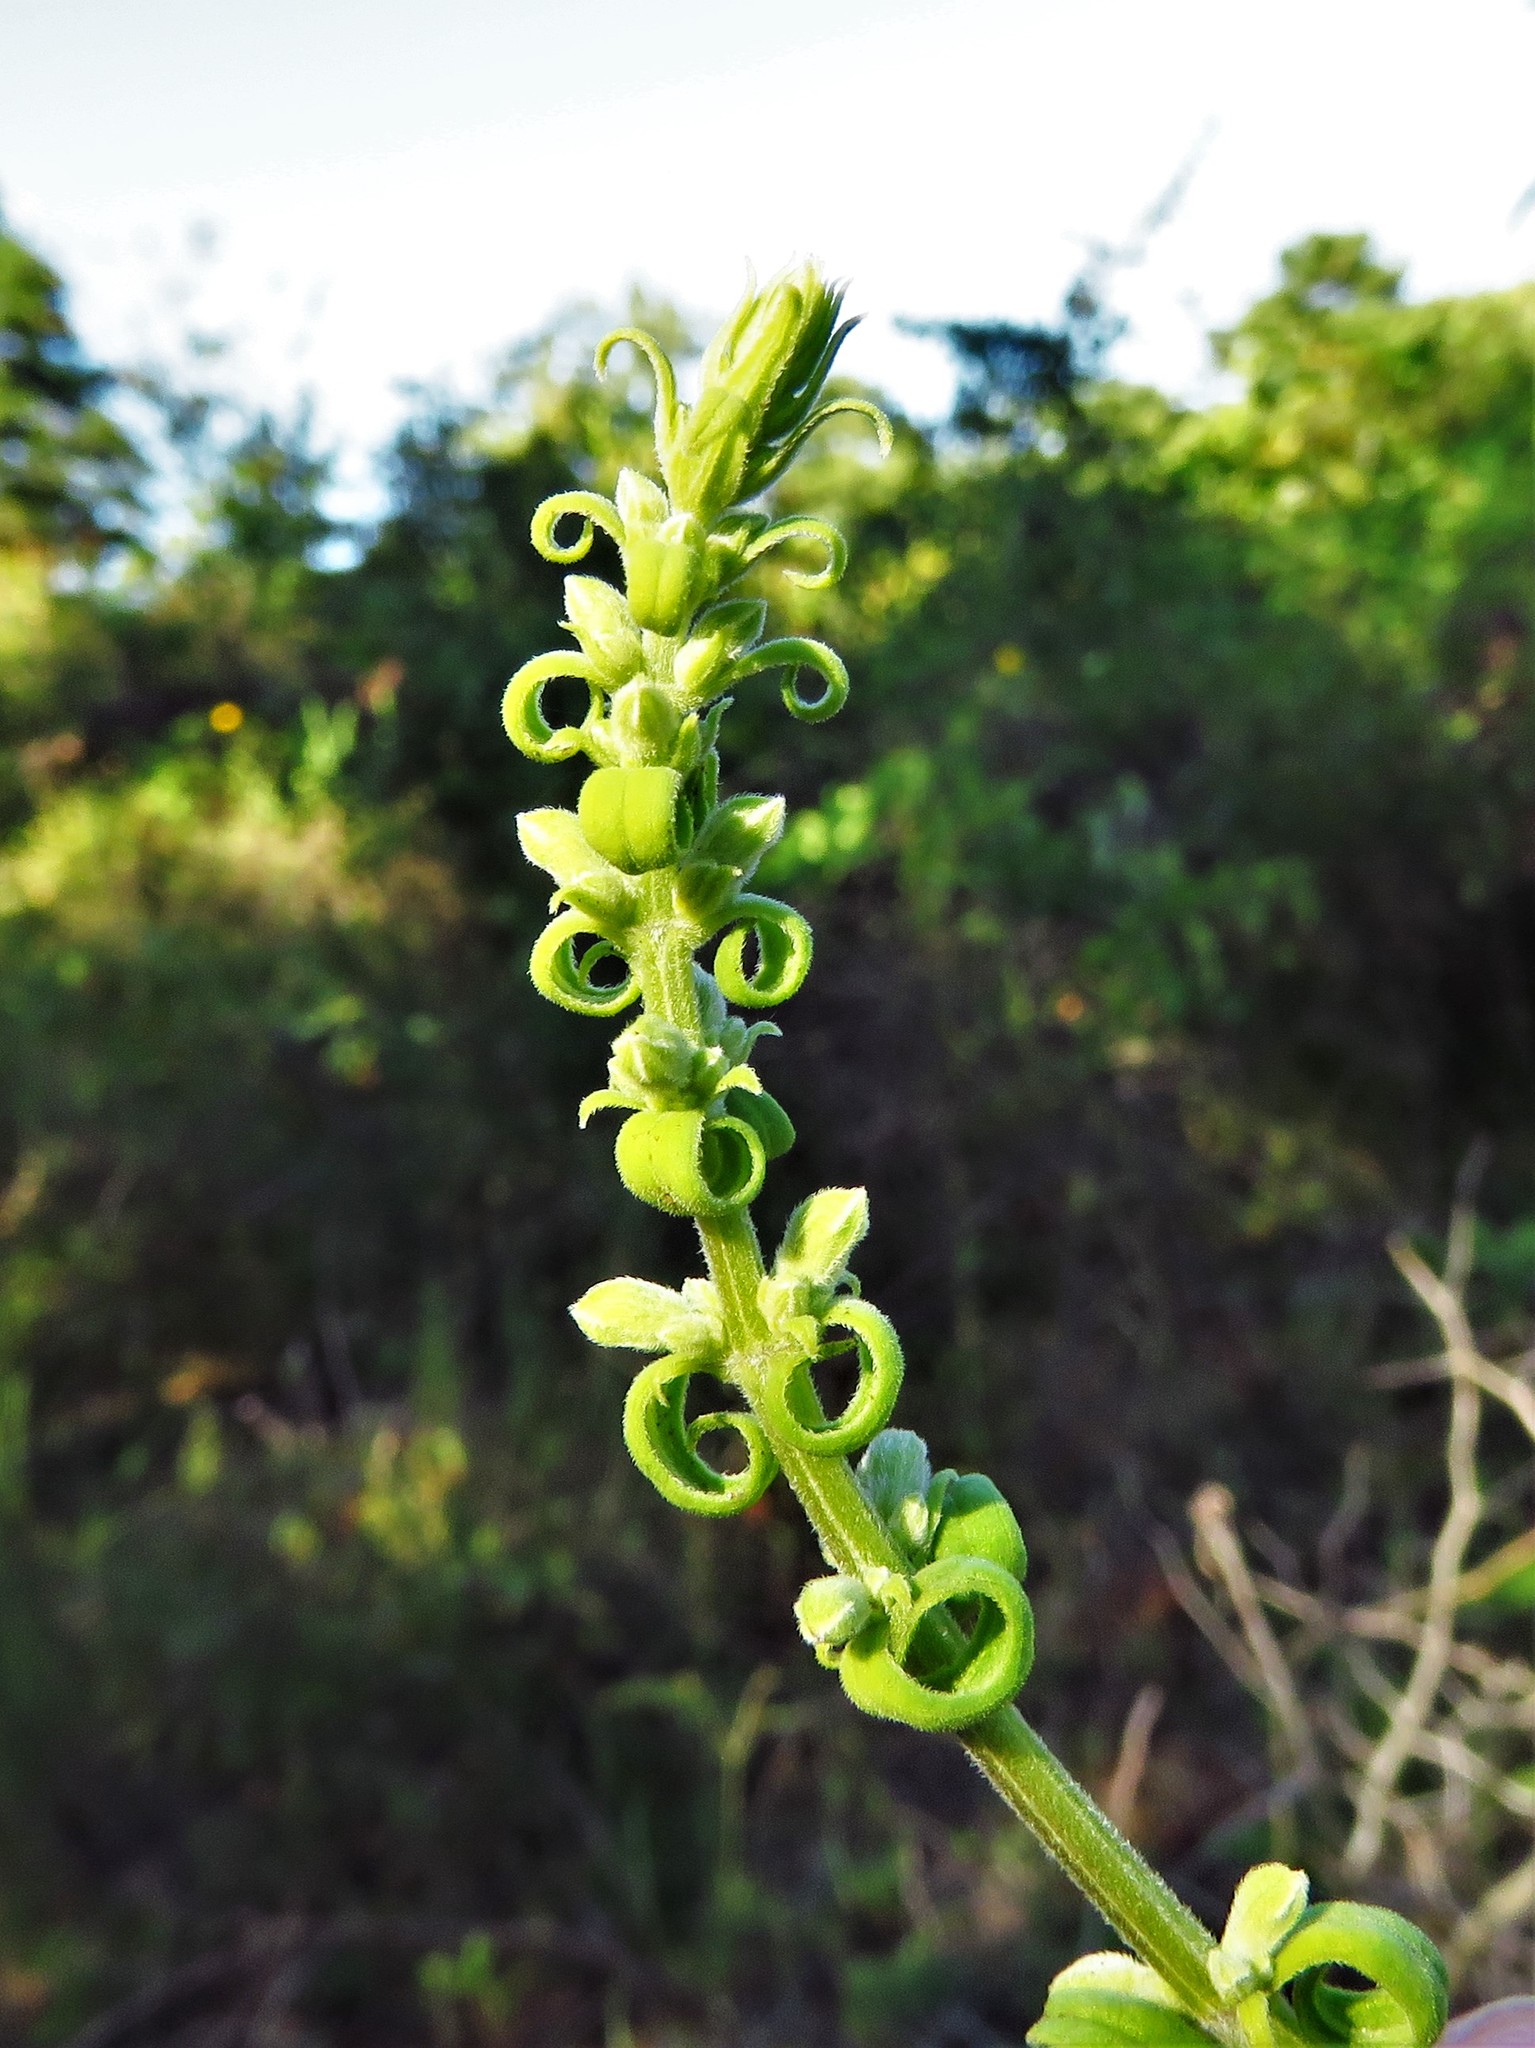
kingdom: Plantae
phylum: Tracheophyta
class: Magnoliopsida
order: Lamiales
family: Lamiaceae
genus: Salvia
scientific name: Salvia azurea
